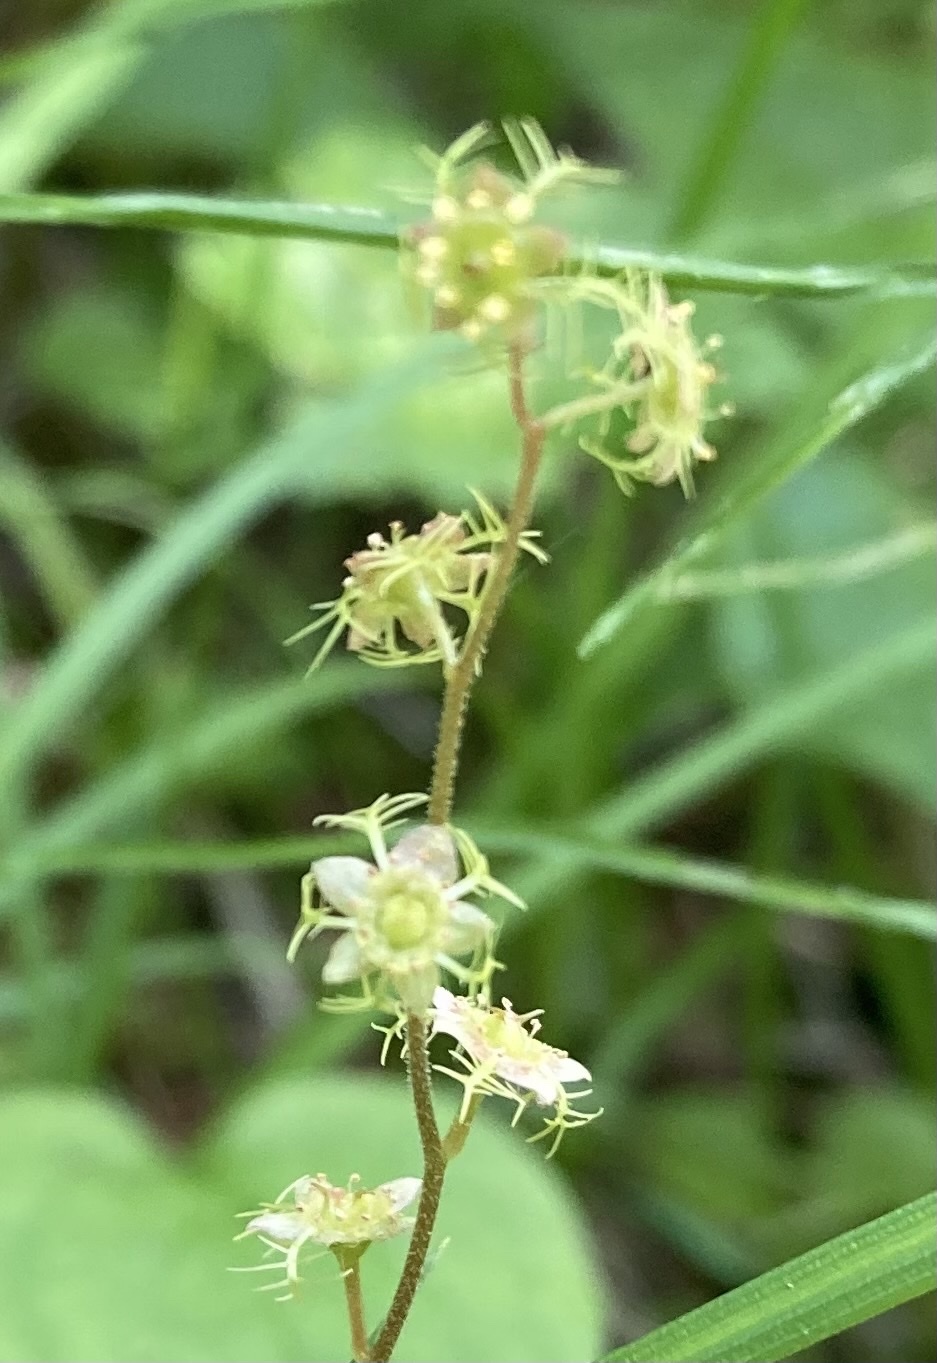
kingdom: Plantae
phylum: Tracheophyta
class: Magnoliopsida
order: Saxifragales
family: Saxifragaceae
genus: Mitella
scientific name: Mitella nuda
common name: Bare-stemmed bishop's-cap
